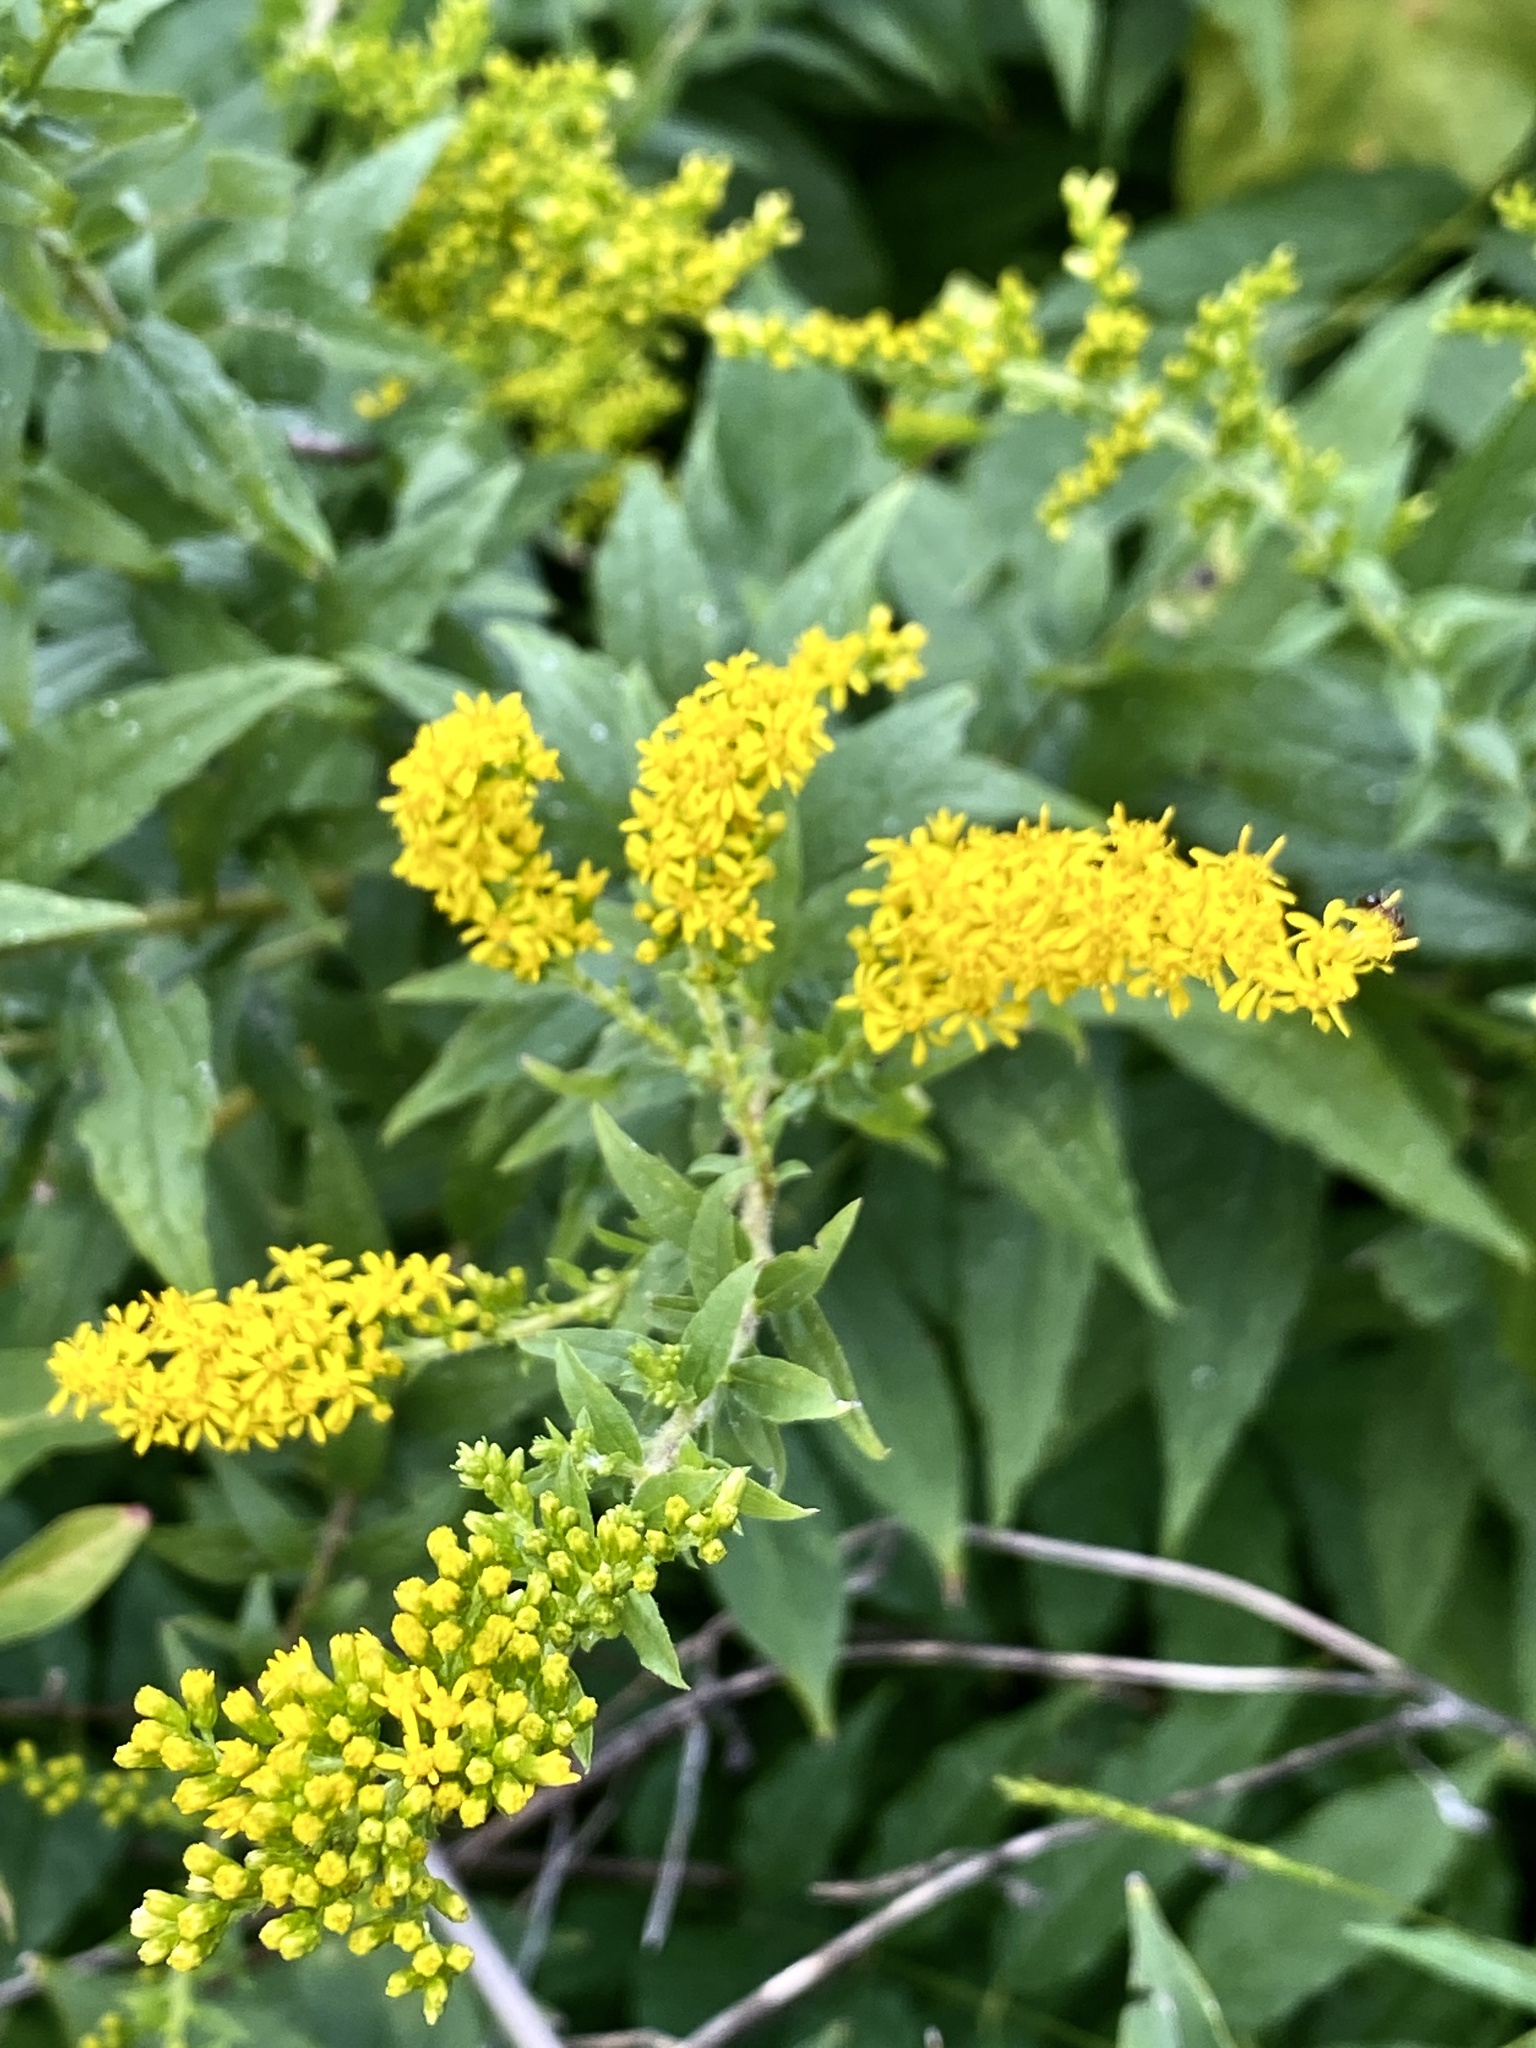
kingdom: Plantae
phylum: Tracheophyta
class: Magnoliopsida
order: Asterales
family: Asteraceae
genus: Solidago
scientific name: Solidago rugosa
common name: Rough-stemmed goldenrod
